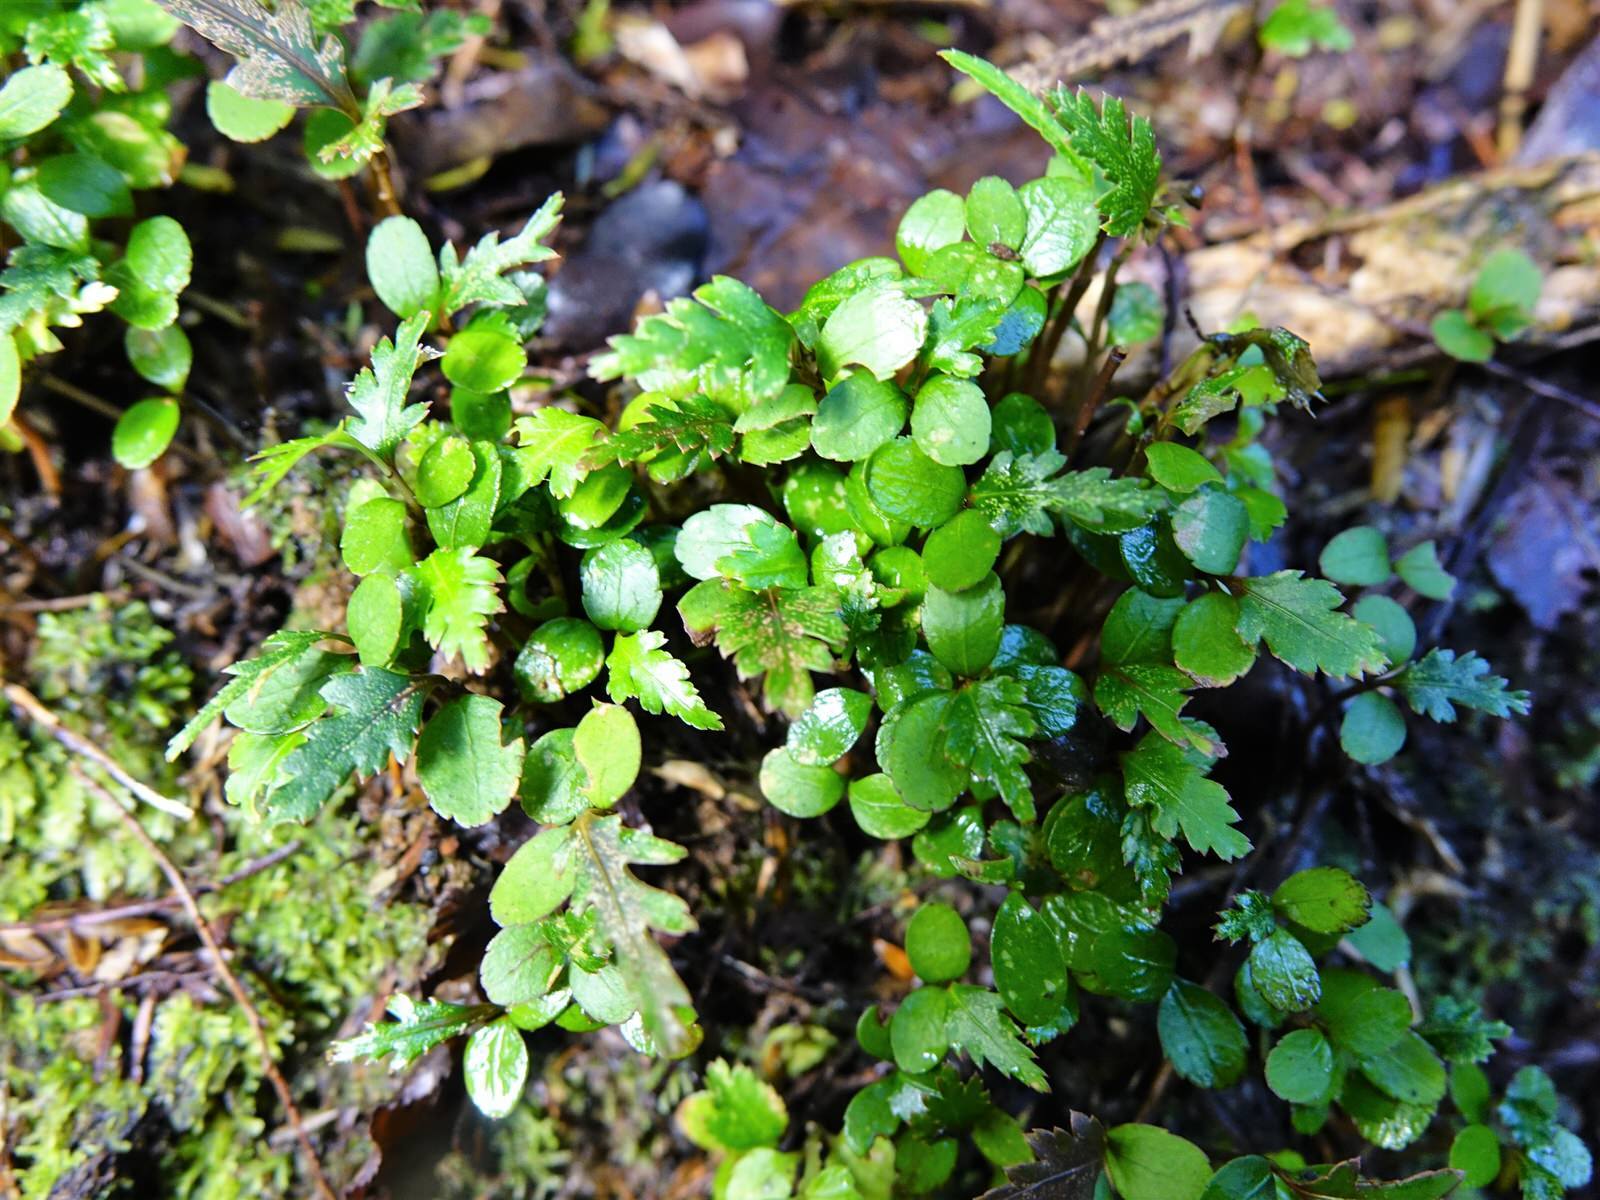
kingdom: Plantae
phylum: Tracheophyta
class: Magnoliopsida
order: Apiales
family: Araliaceae
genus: Pseudopanax
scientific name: Pseudopanax crassifolius
